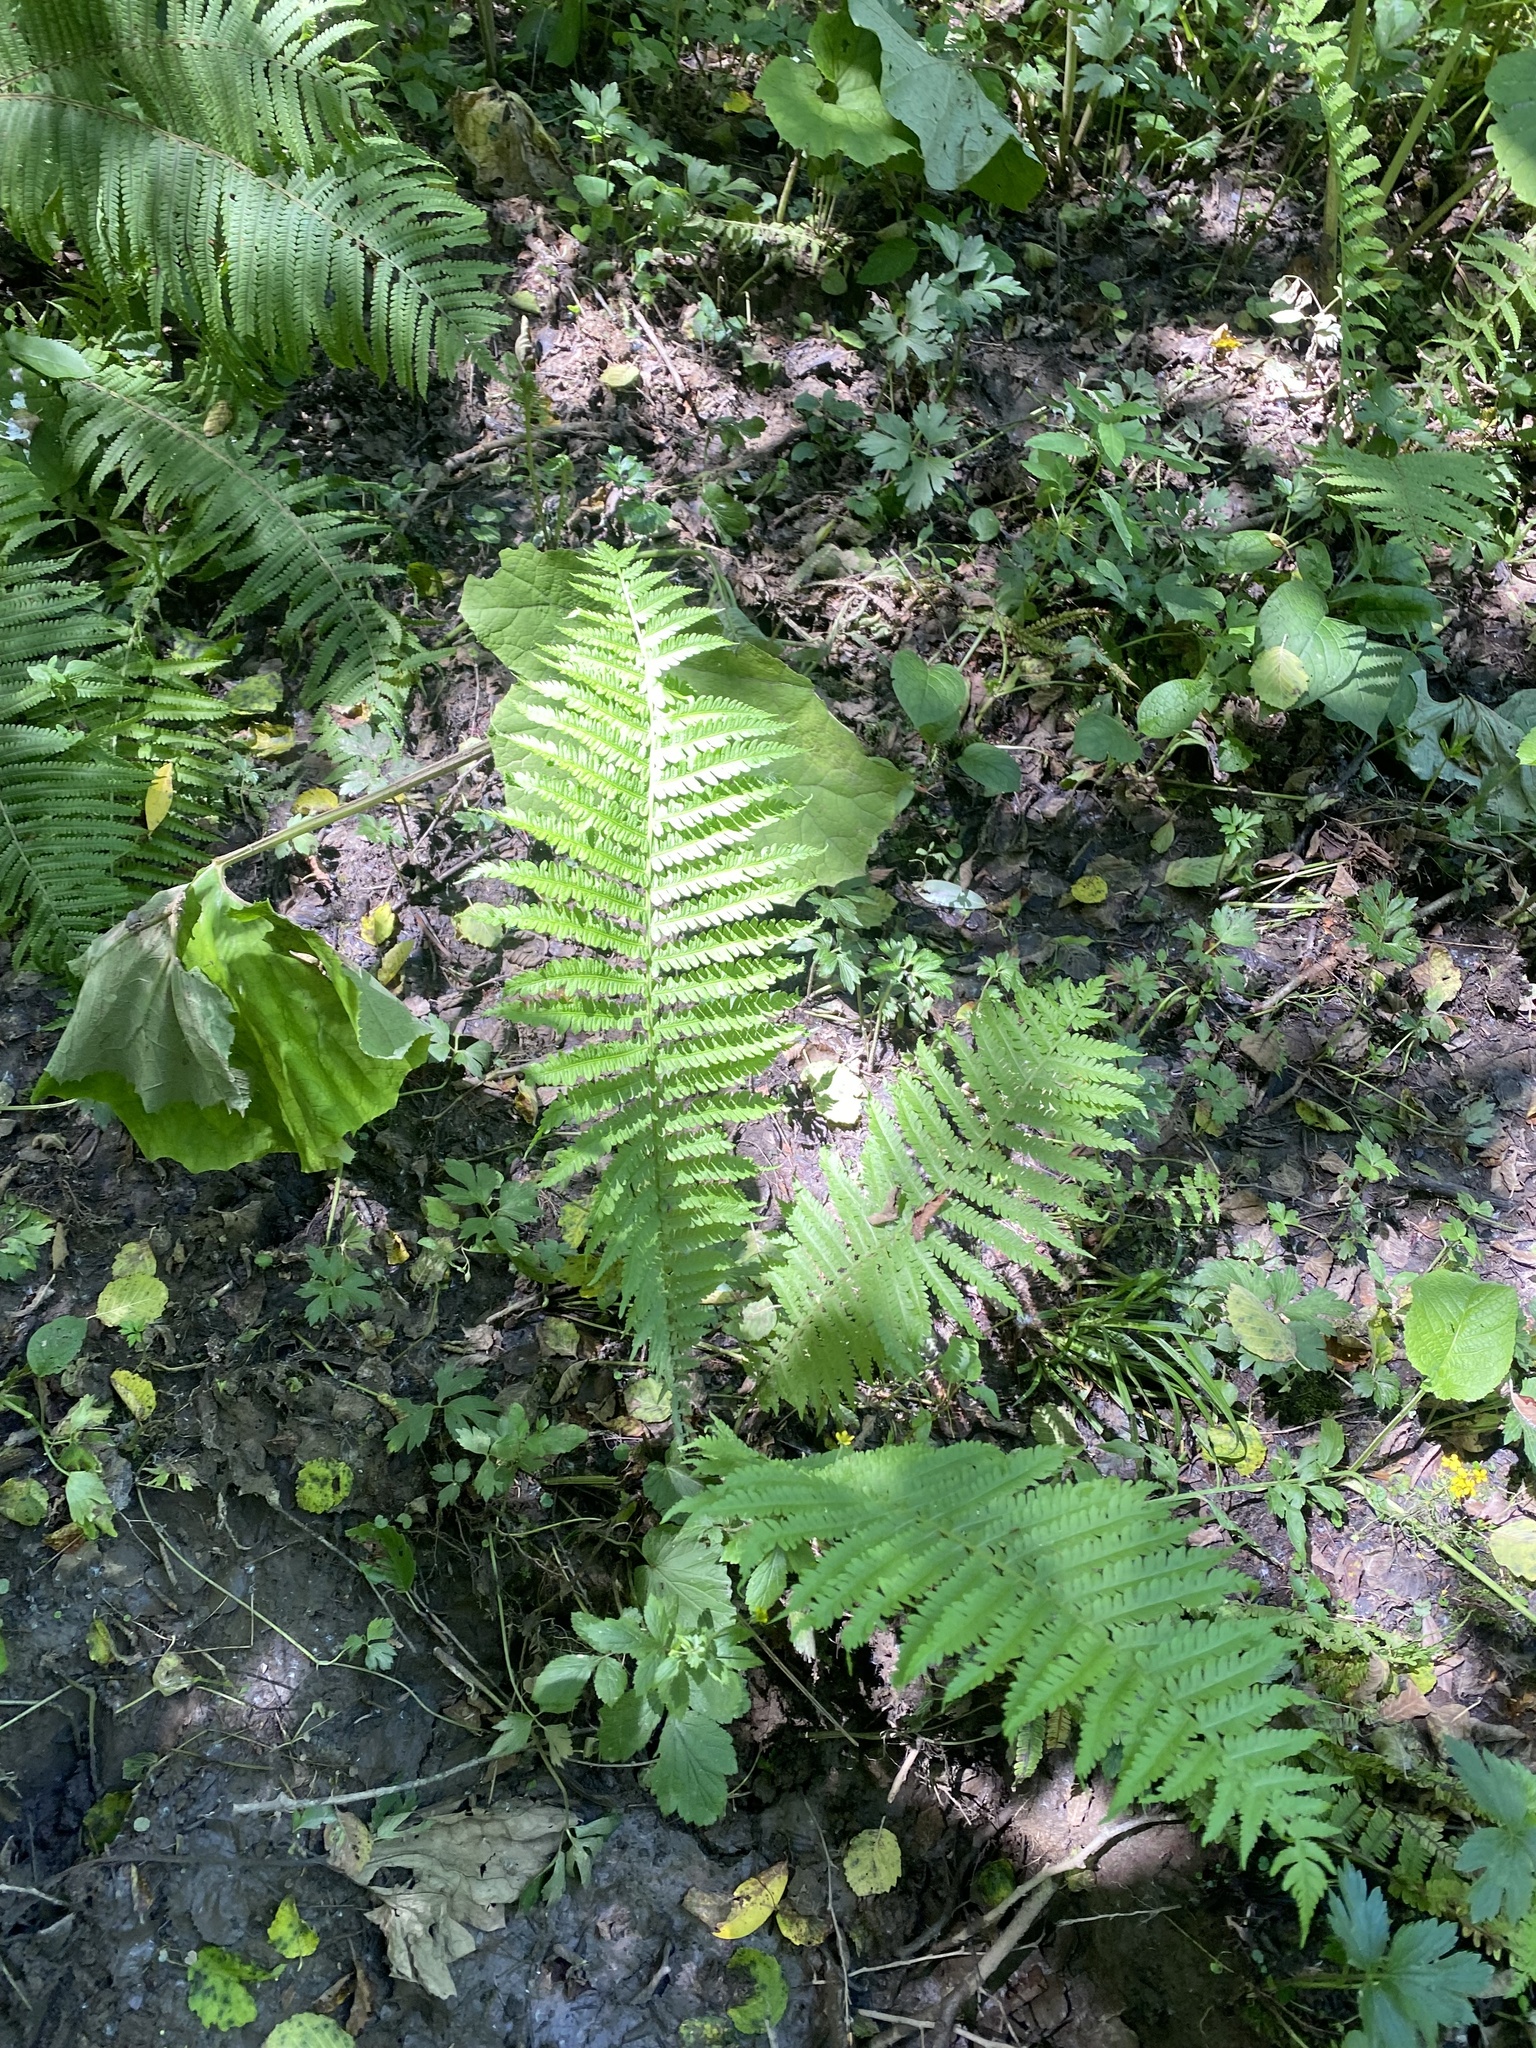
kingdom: Plantae
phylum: Tracheophyta
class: Polypodiopsida
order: Polypodiales
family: Onocleaceae
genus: Matteuccia
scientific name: Matteuccia struthiopteris
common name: Ostrich fern
